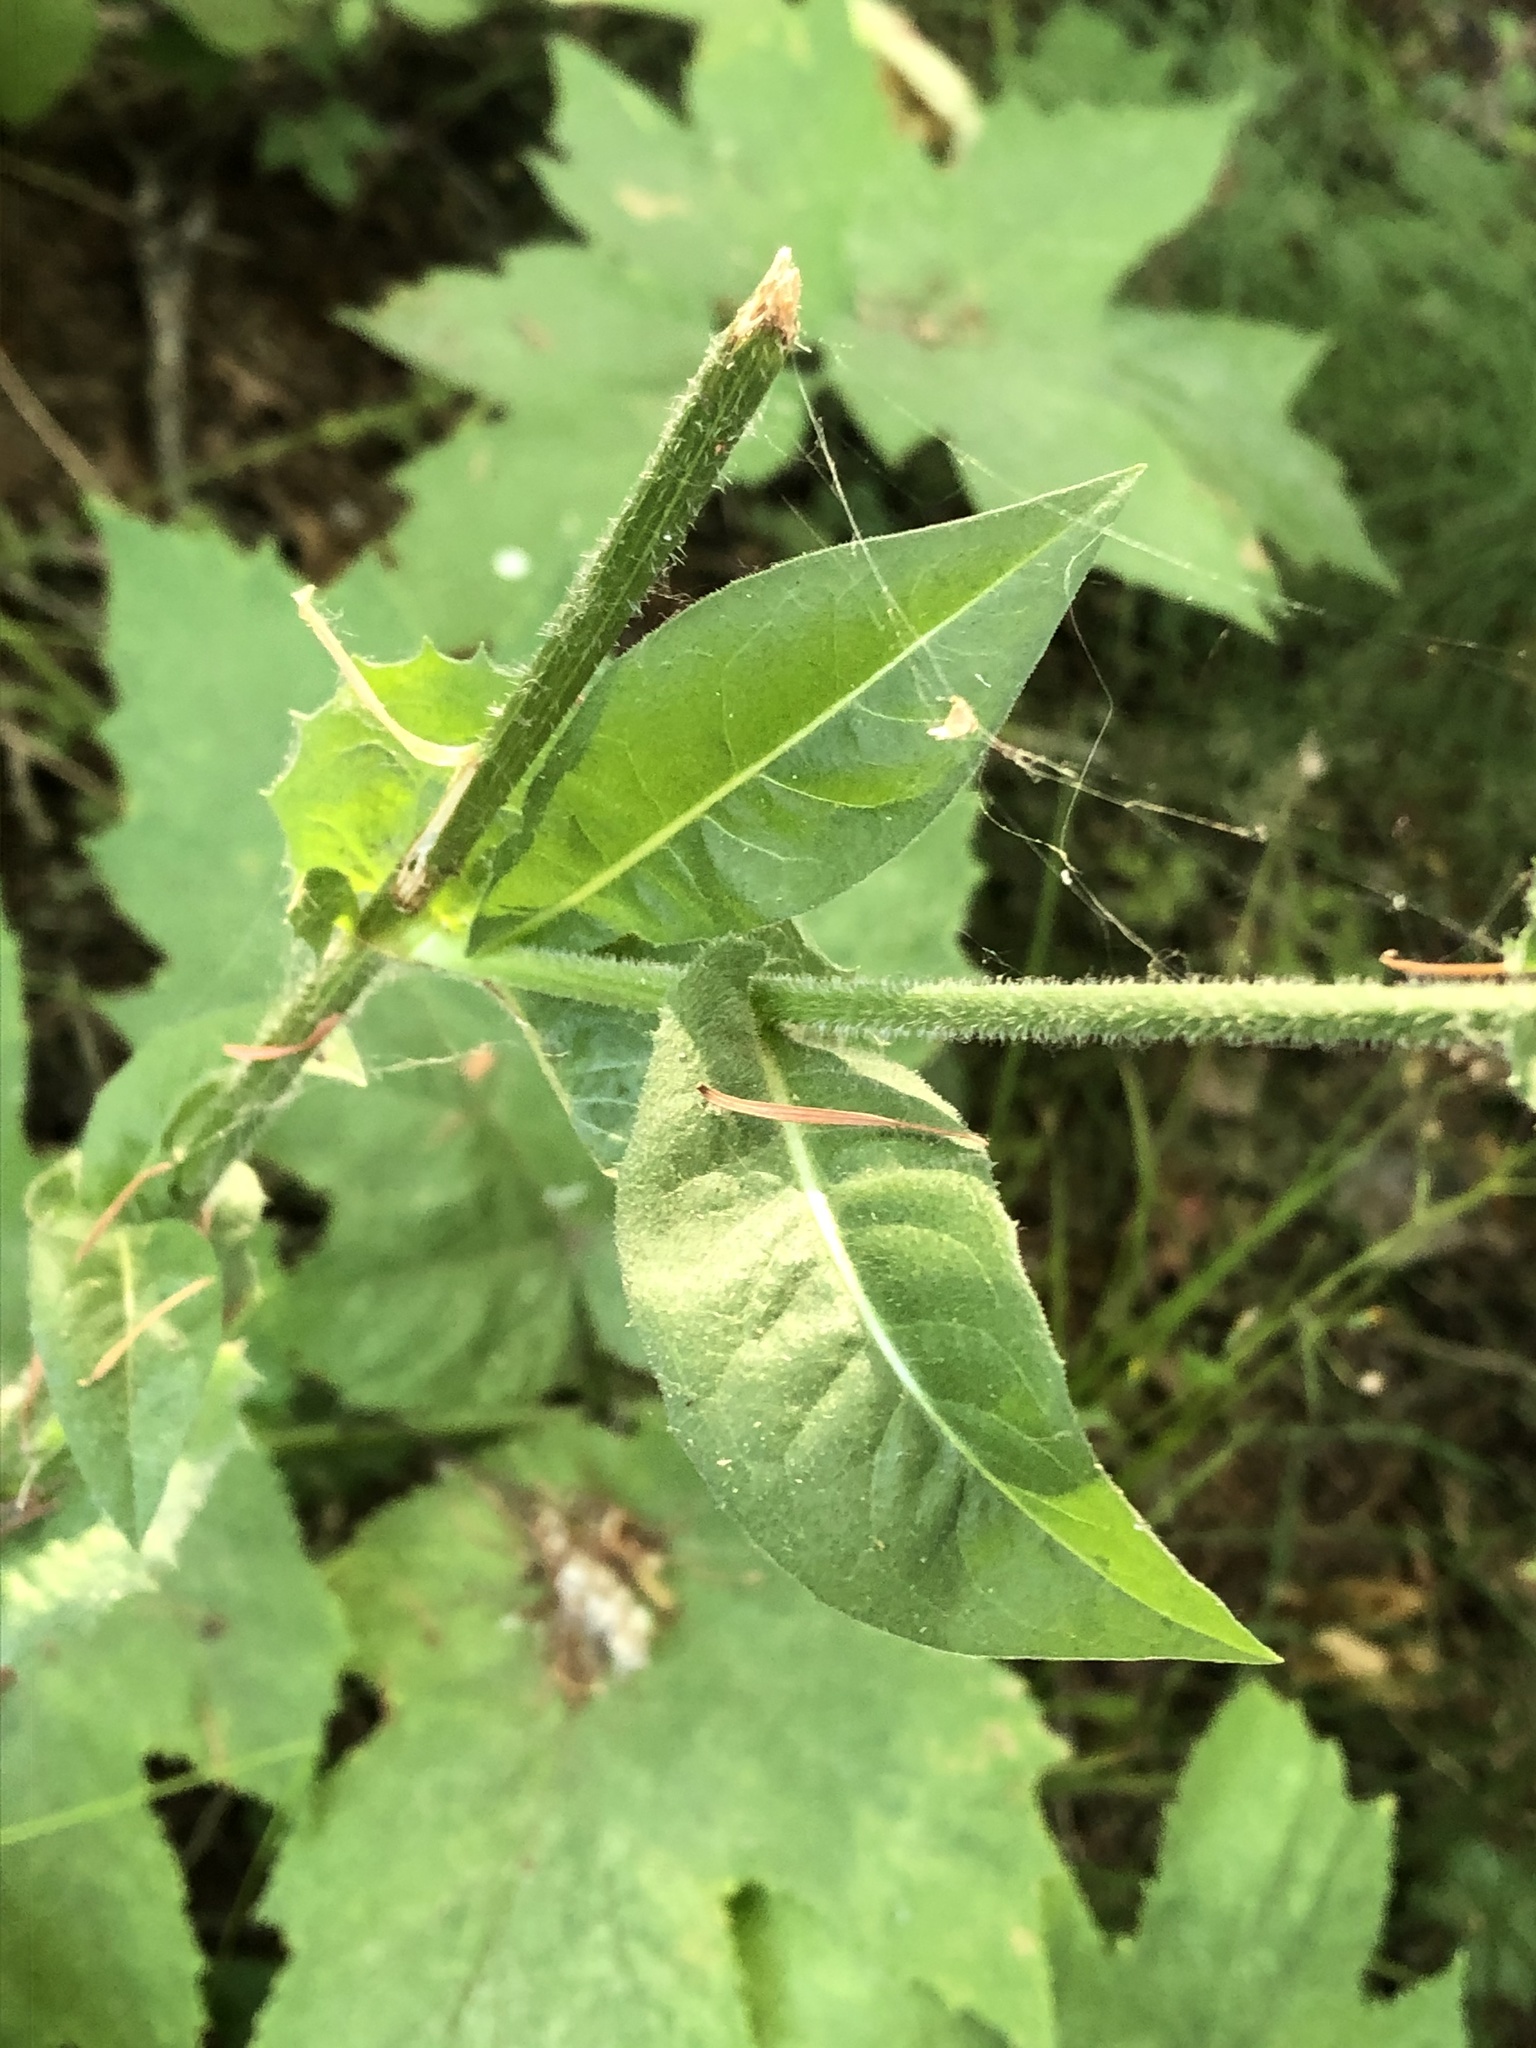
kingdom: Plantae
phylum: Tracheophyta
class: Magnoliopsida
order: Asterales
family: Asteraceae
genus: Cichorium
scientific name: Cichorium intybus
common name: Chicory
